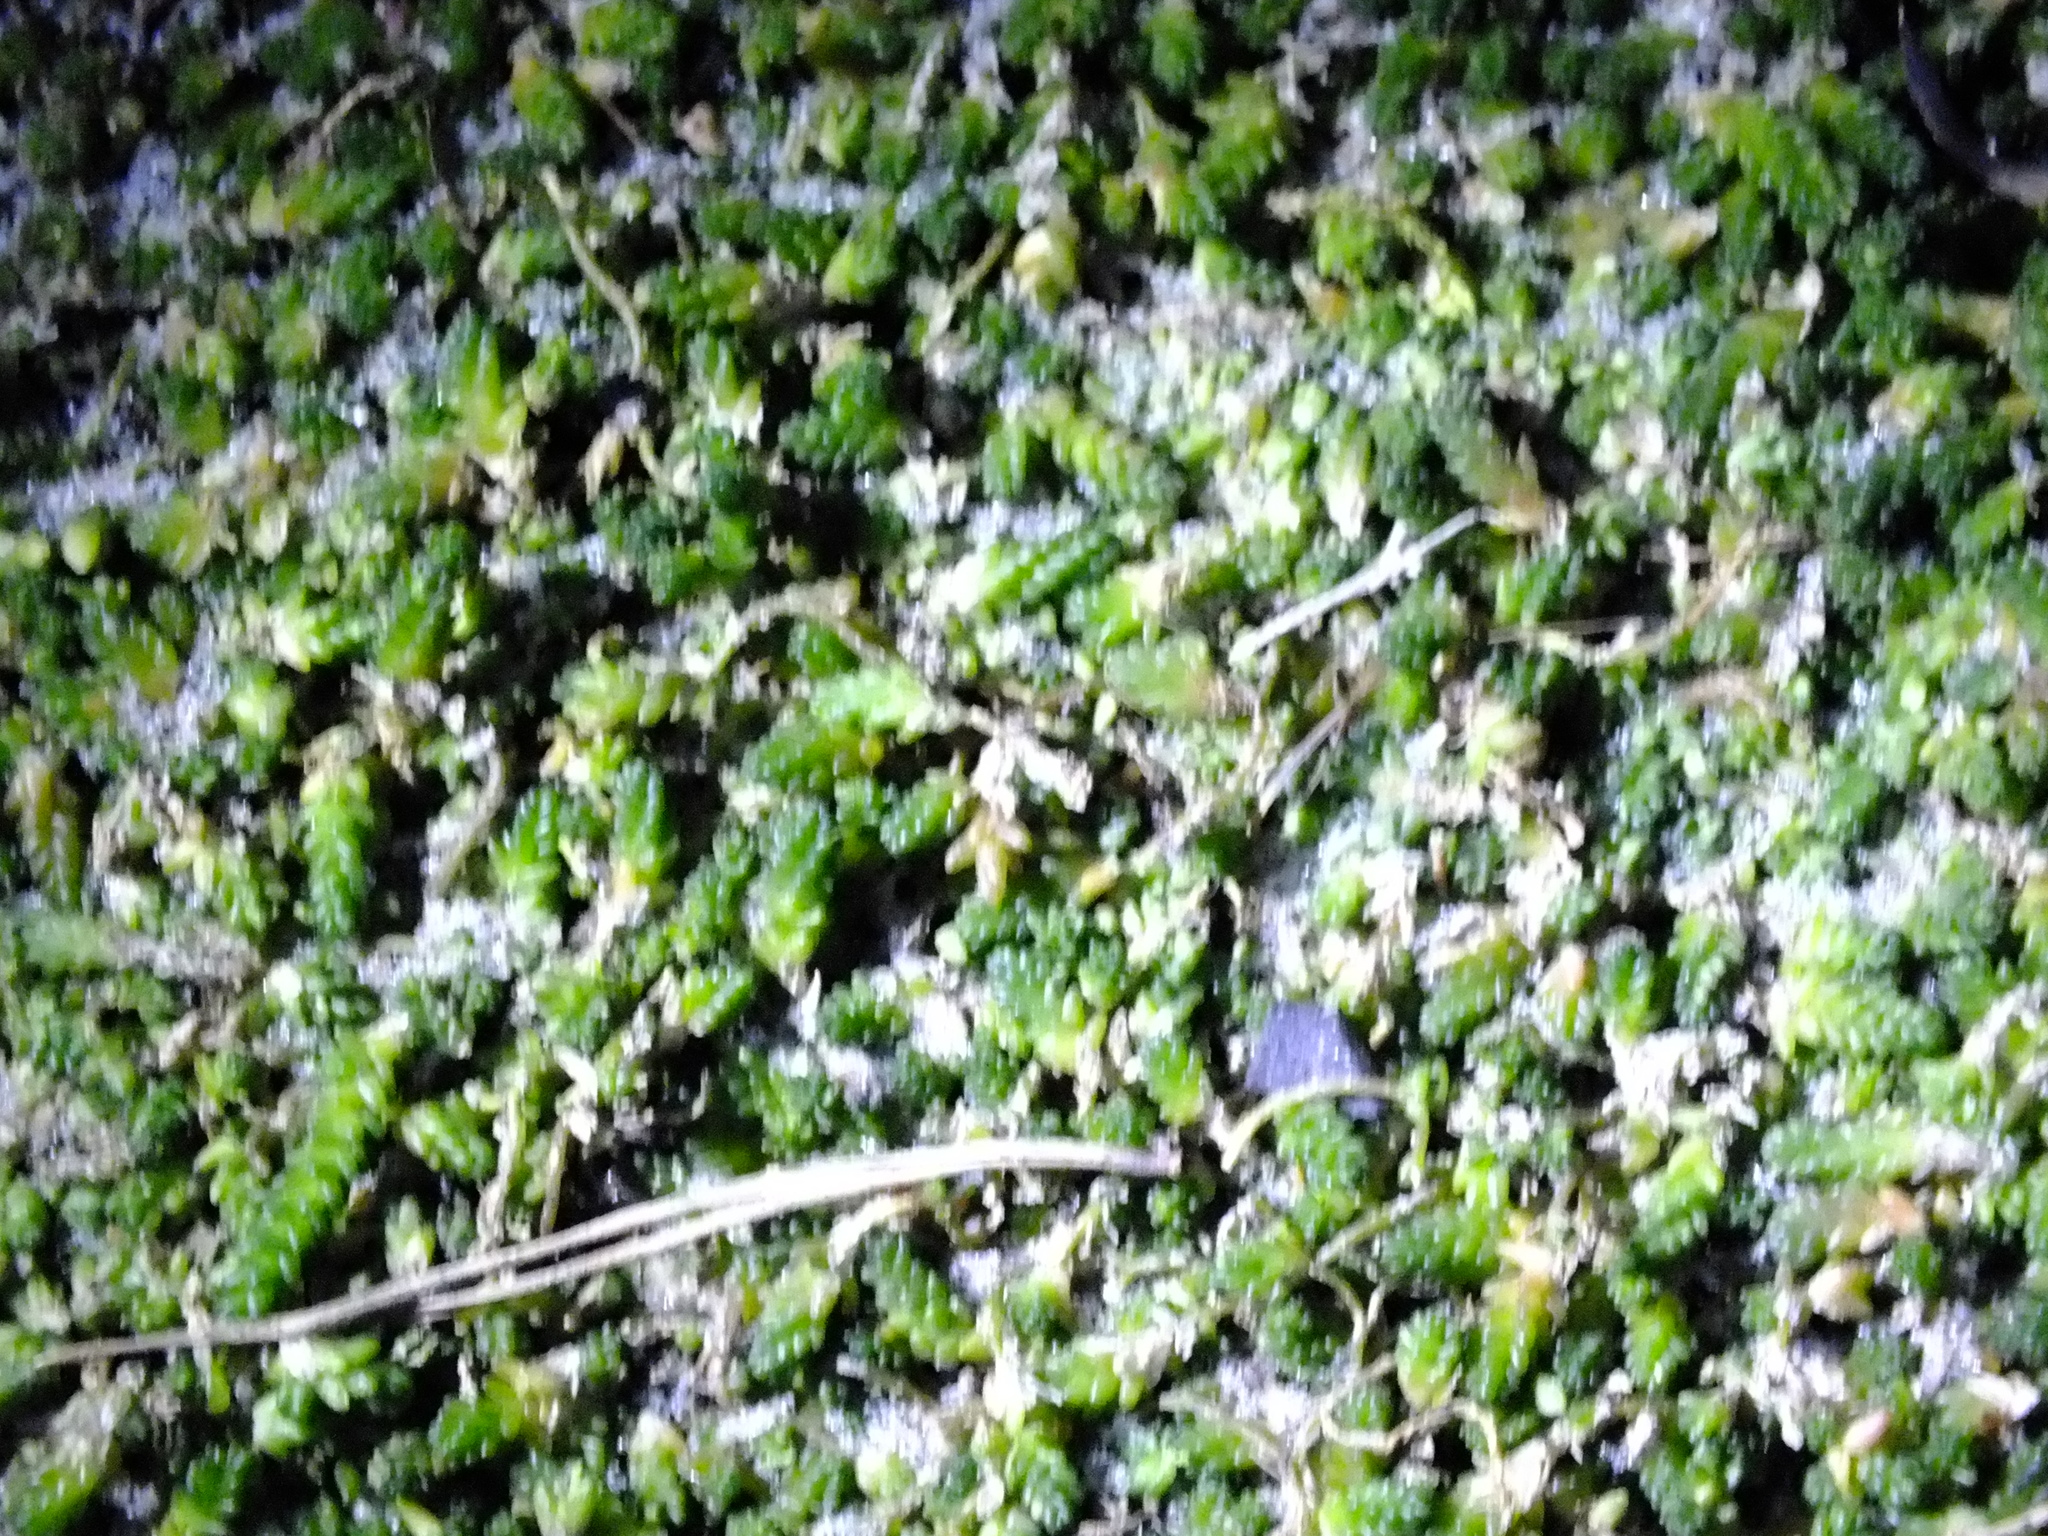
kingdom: Plantae
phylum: Tracheophyta
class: Magnoliopsida
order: Saxifragales
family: Crassulaceae
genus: Sedum
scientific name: Sedum acre
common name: Biting stonecrop
